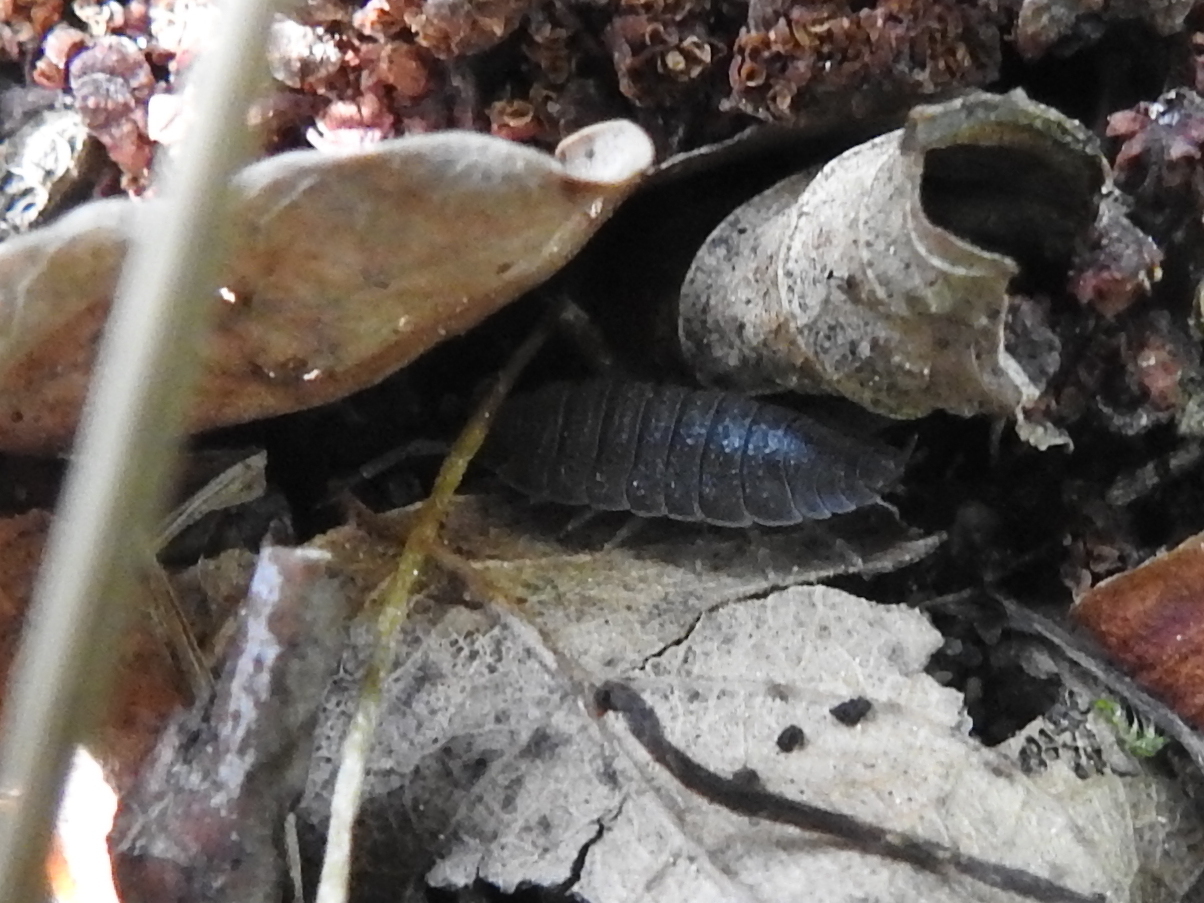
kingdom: Animalia
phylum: Arthropoda
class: Malacostraca
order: Isopoda
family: Porcellionidae
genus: Porcellio
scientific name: Porcellio scaber
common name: Common rough woodlouse
